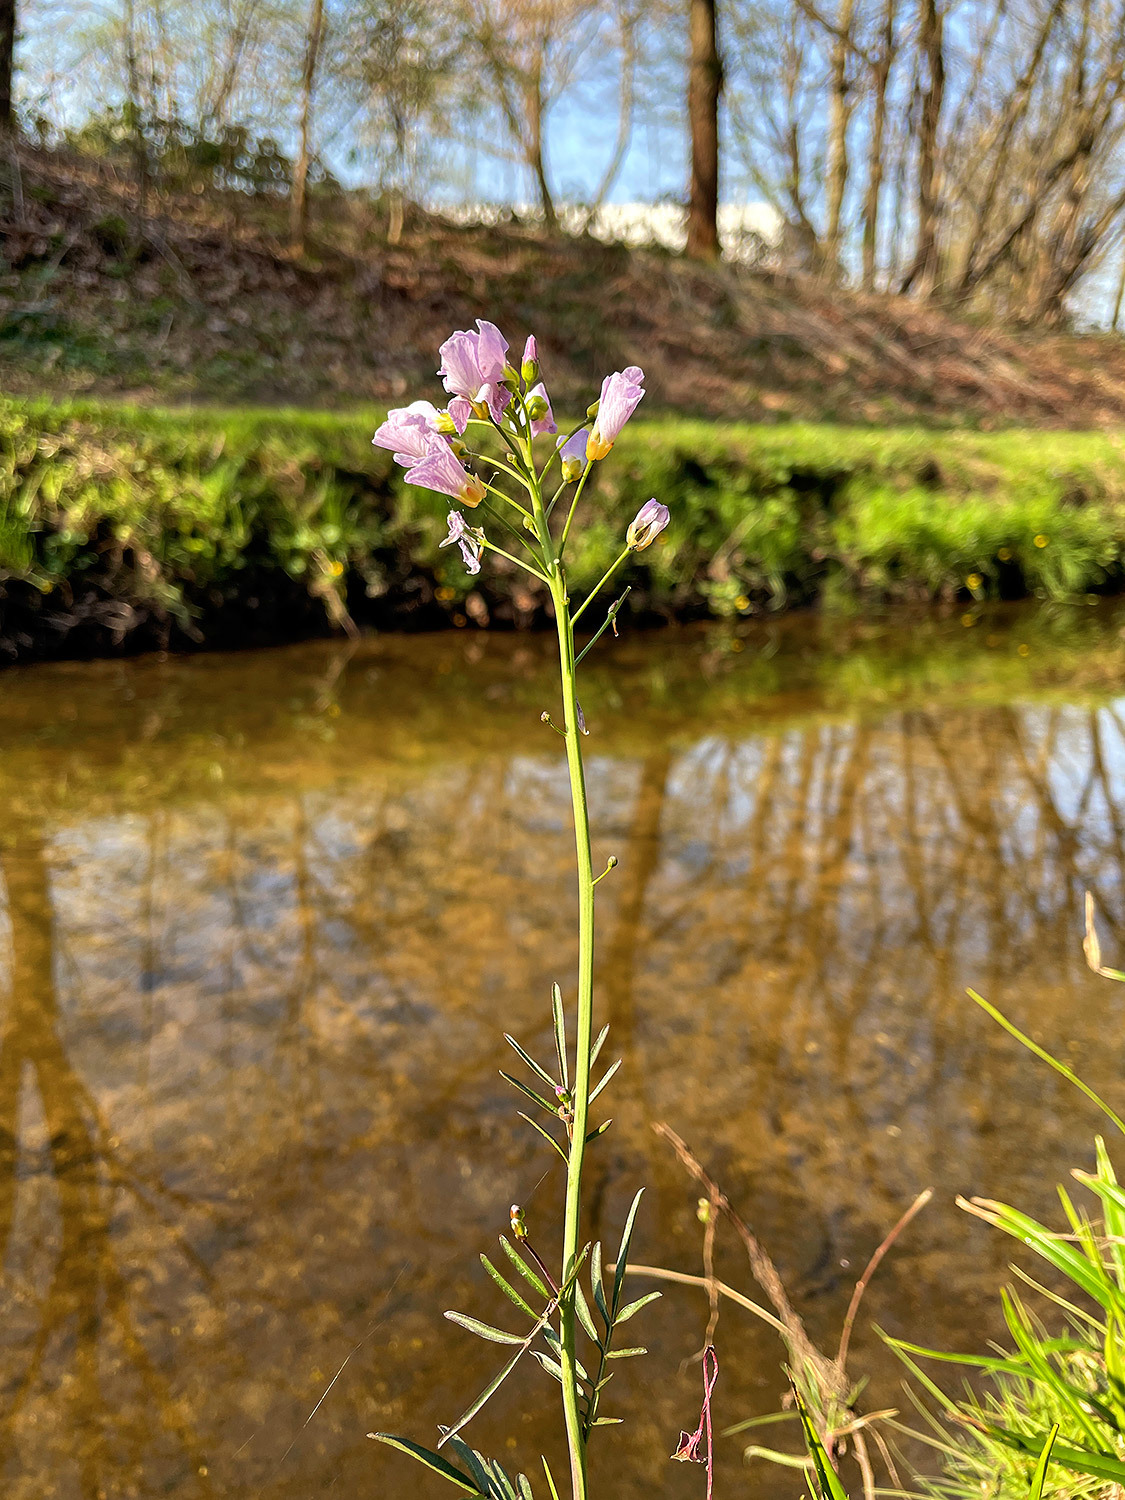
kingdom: Plantae
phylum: Tracheophyta
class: Magnoliopsida
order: Brassicales
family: Brassicaceae
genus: Cardamine
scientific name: Cardamine pratensis
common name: Cuckoo flower
